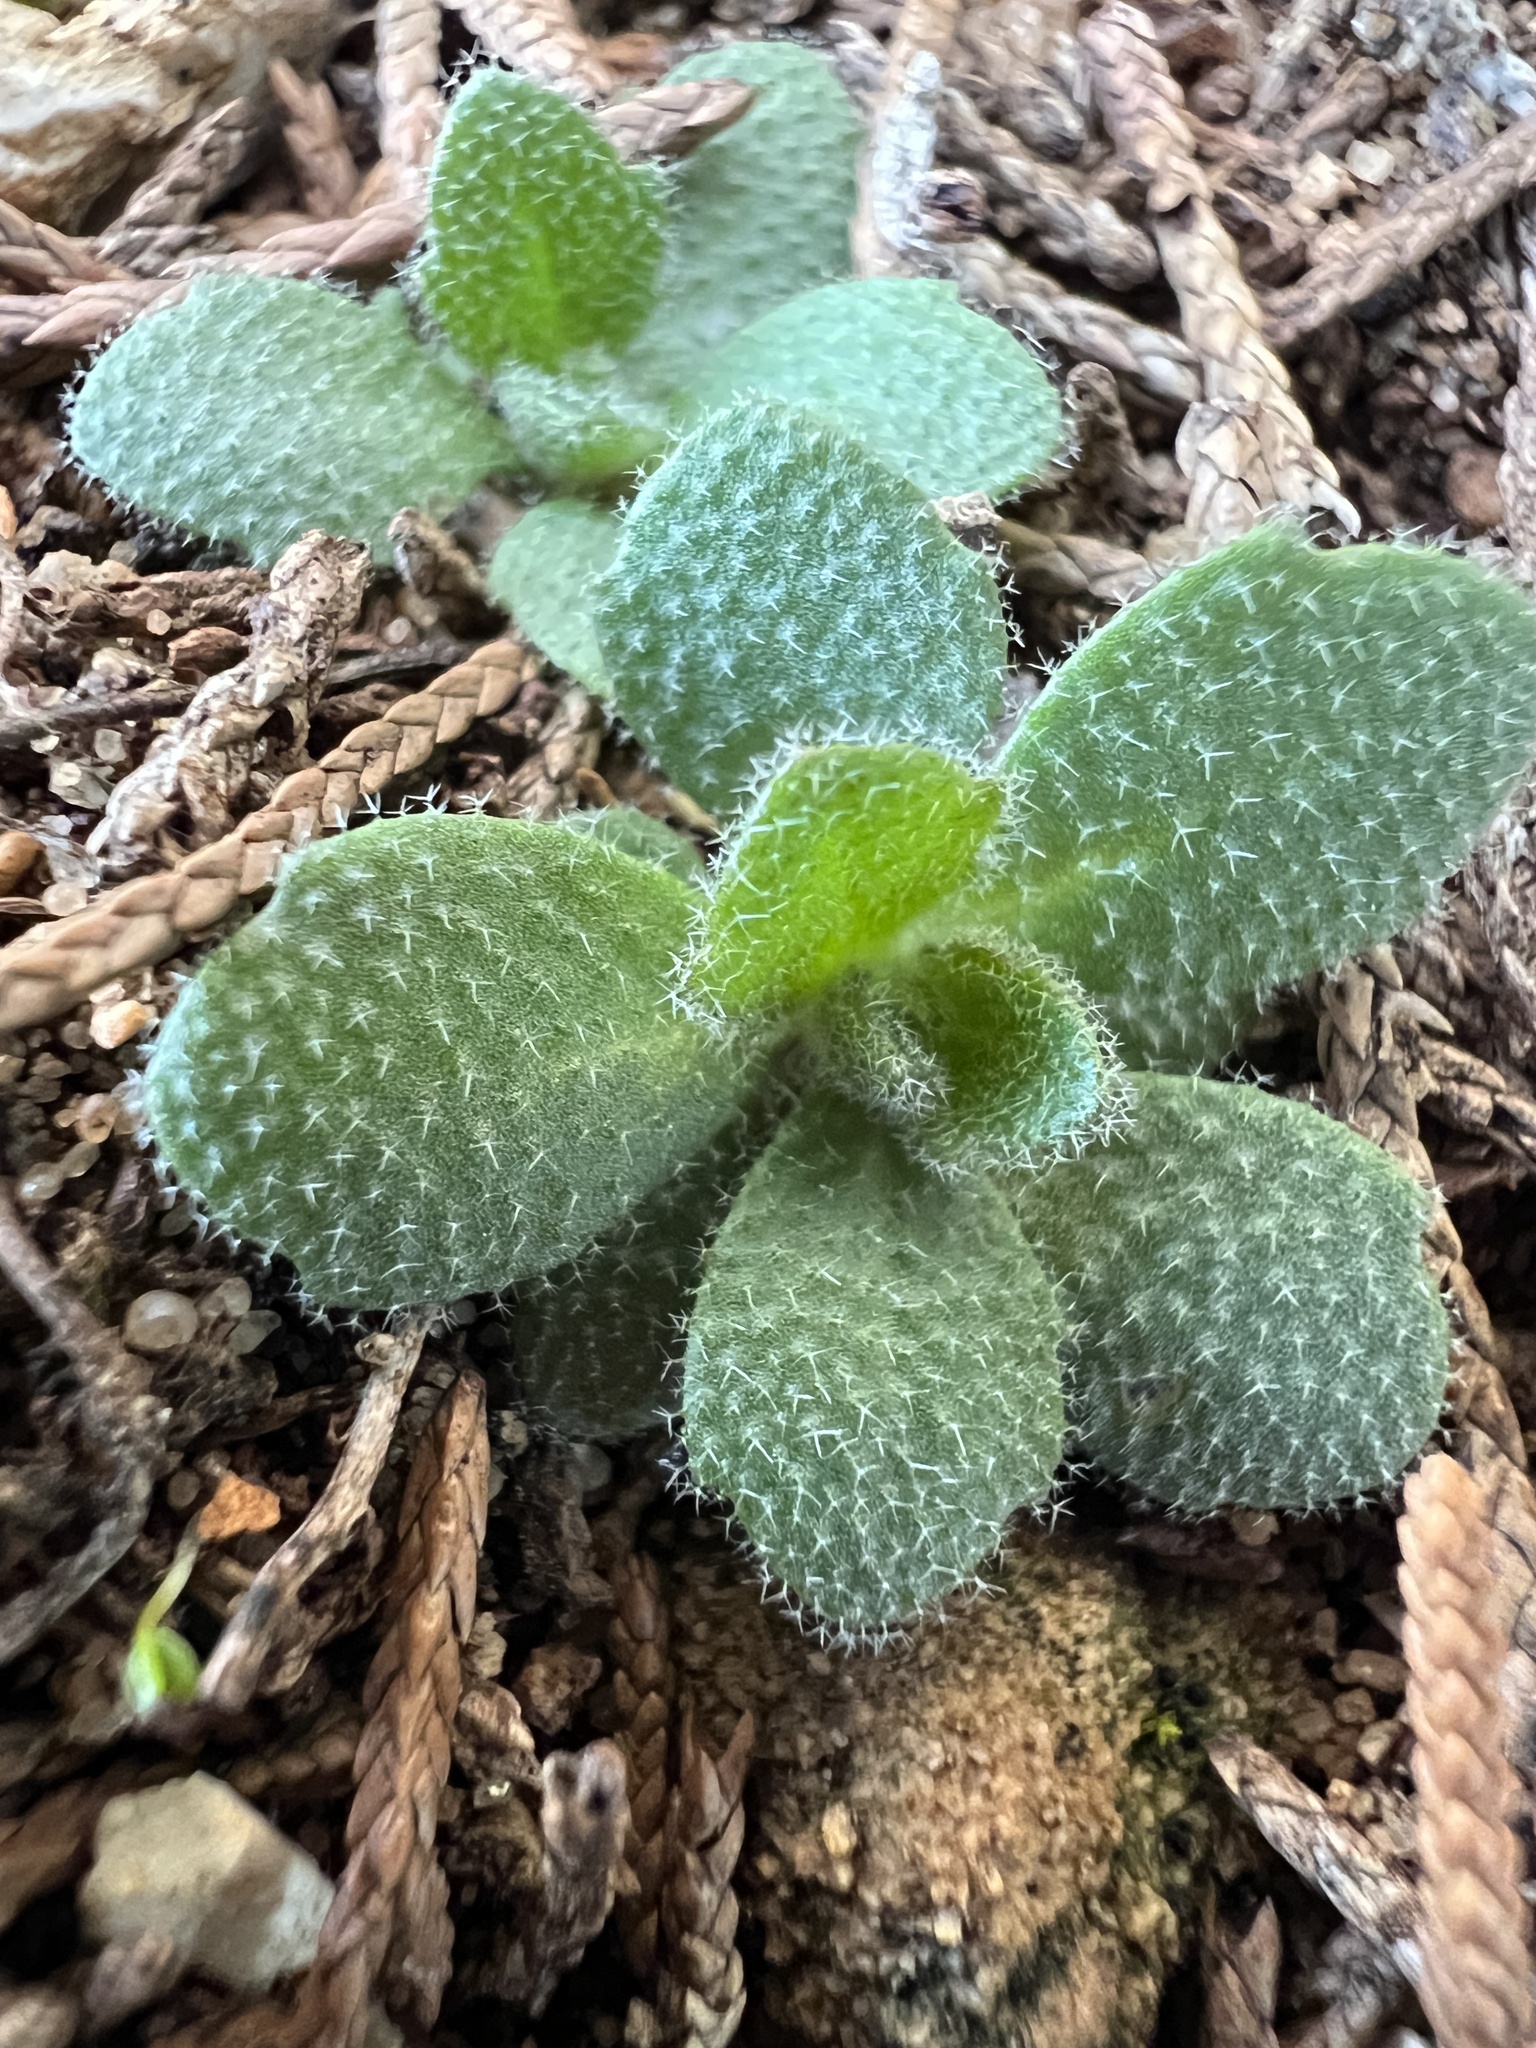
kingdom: Plantae
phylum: Tracheophyta
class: Magnoliopsida
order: Brassicales
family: Brassicaceae
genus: Tomostima
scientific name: Tomostima cuneifolia
